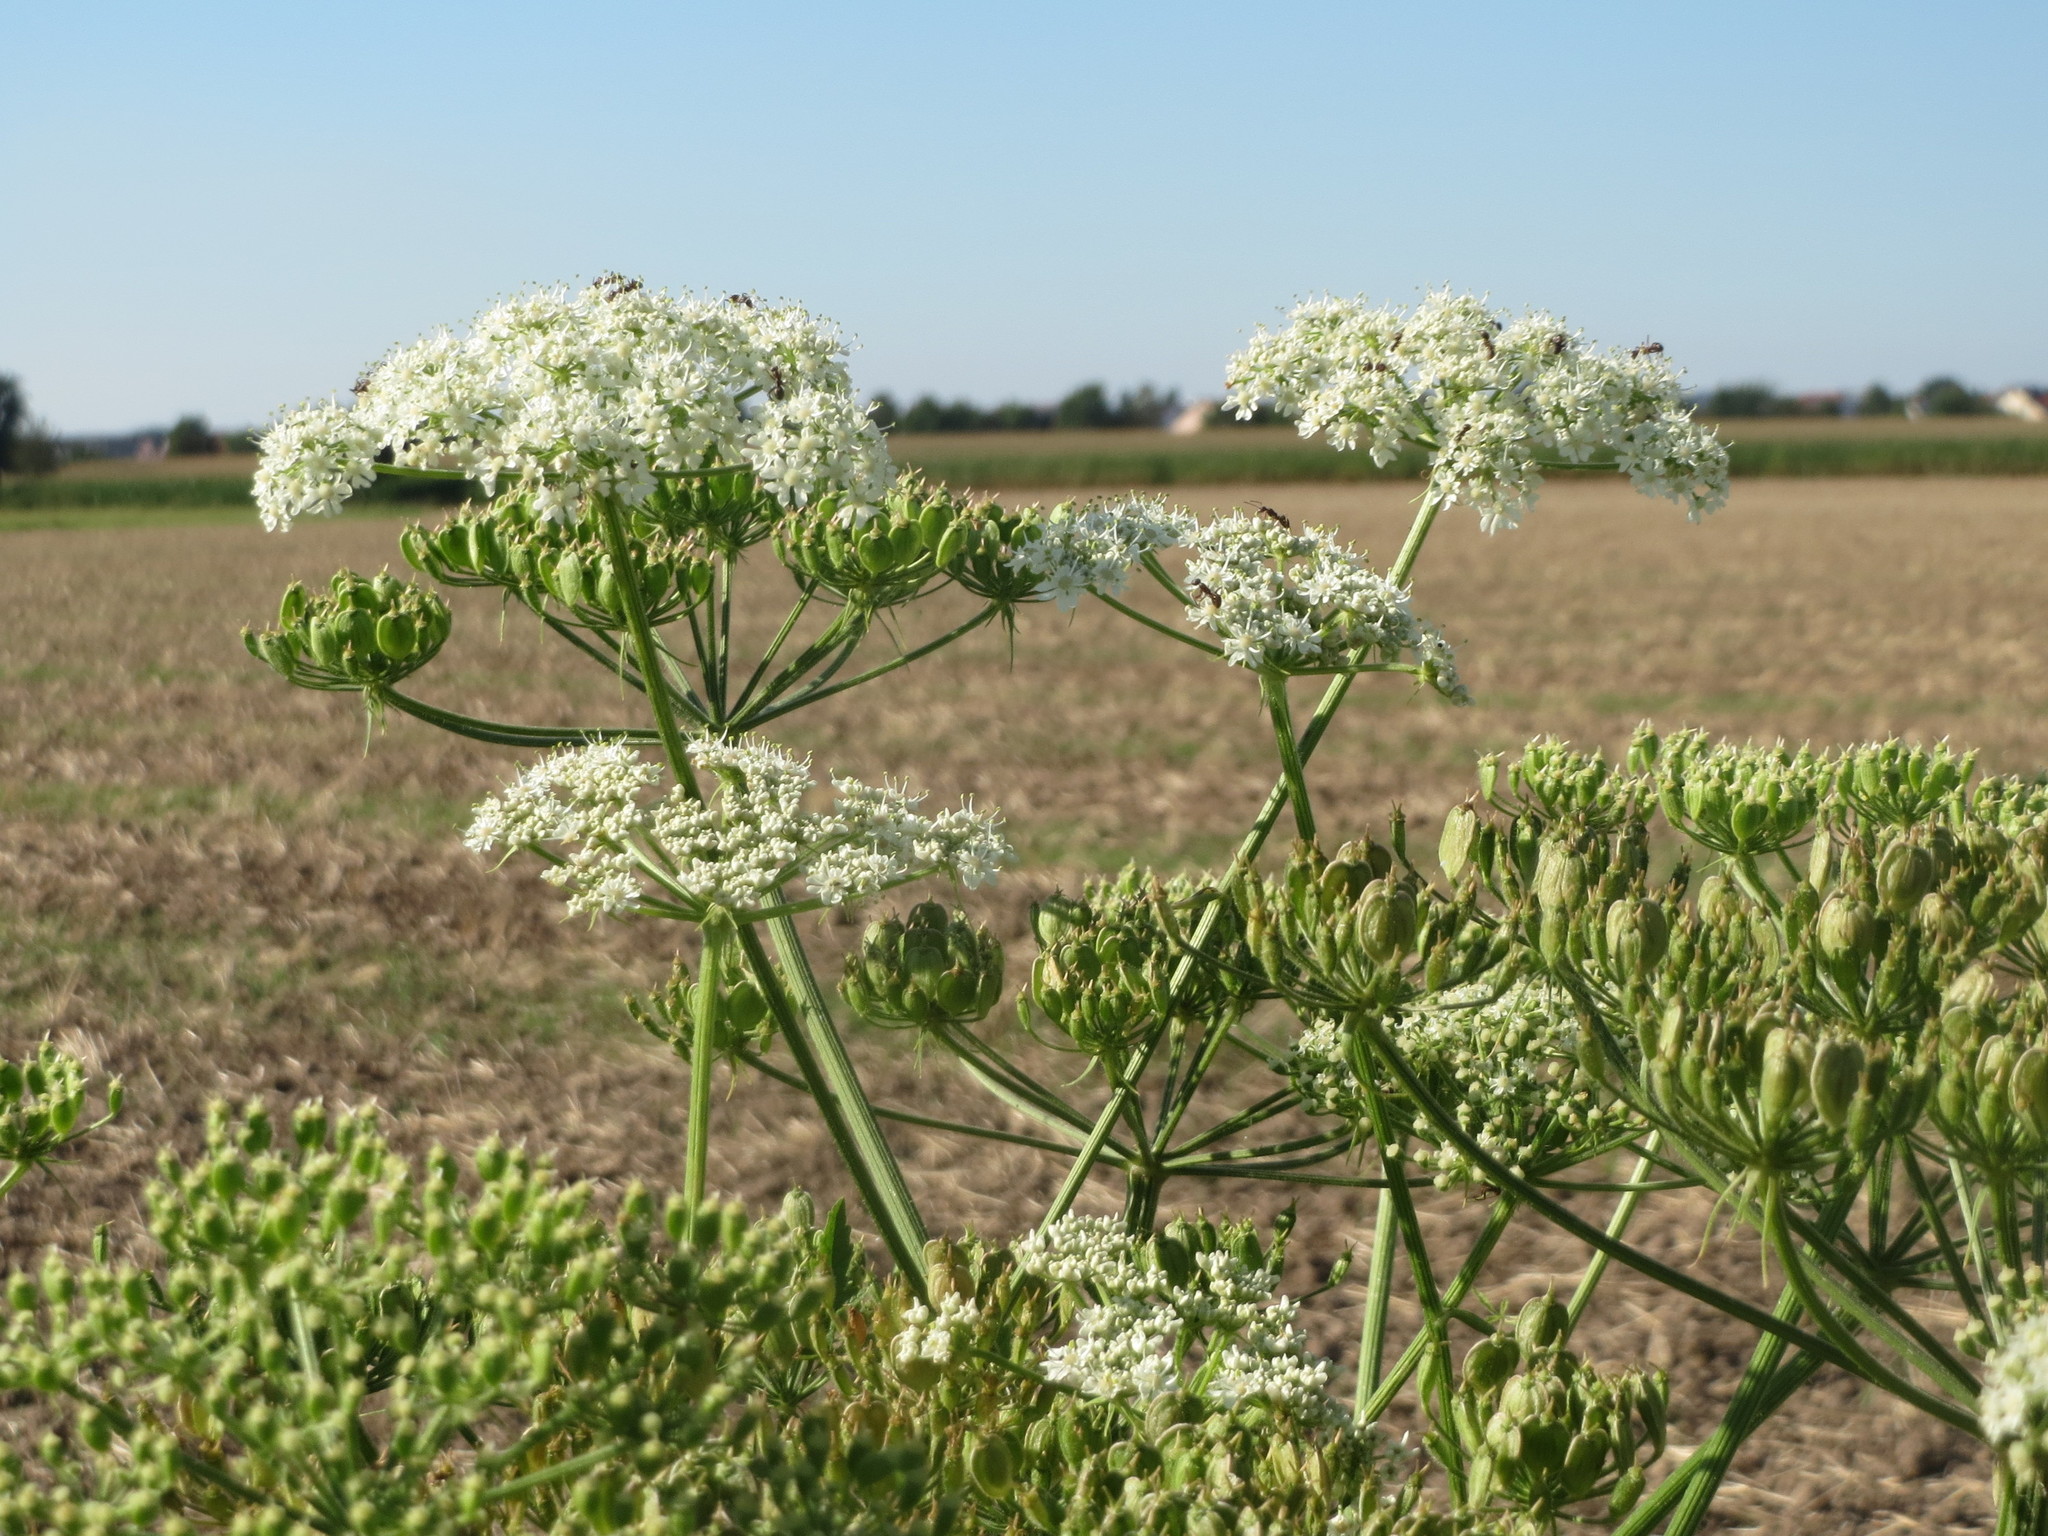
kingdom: Plantae
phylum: Tracheophyta
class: Magnoliopsida
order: Apiales
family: Apiaceae
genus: Heracleum
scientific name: Heracleum sphondylium
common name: Hogweed
